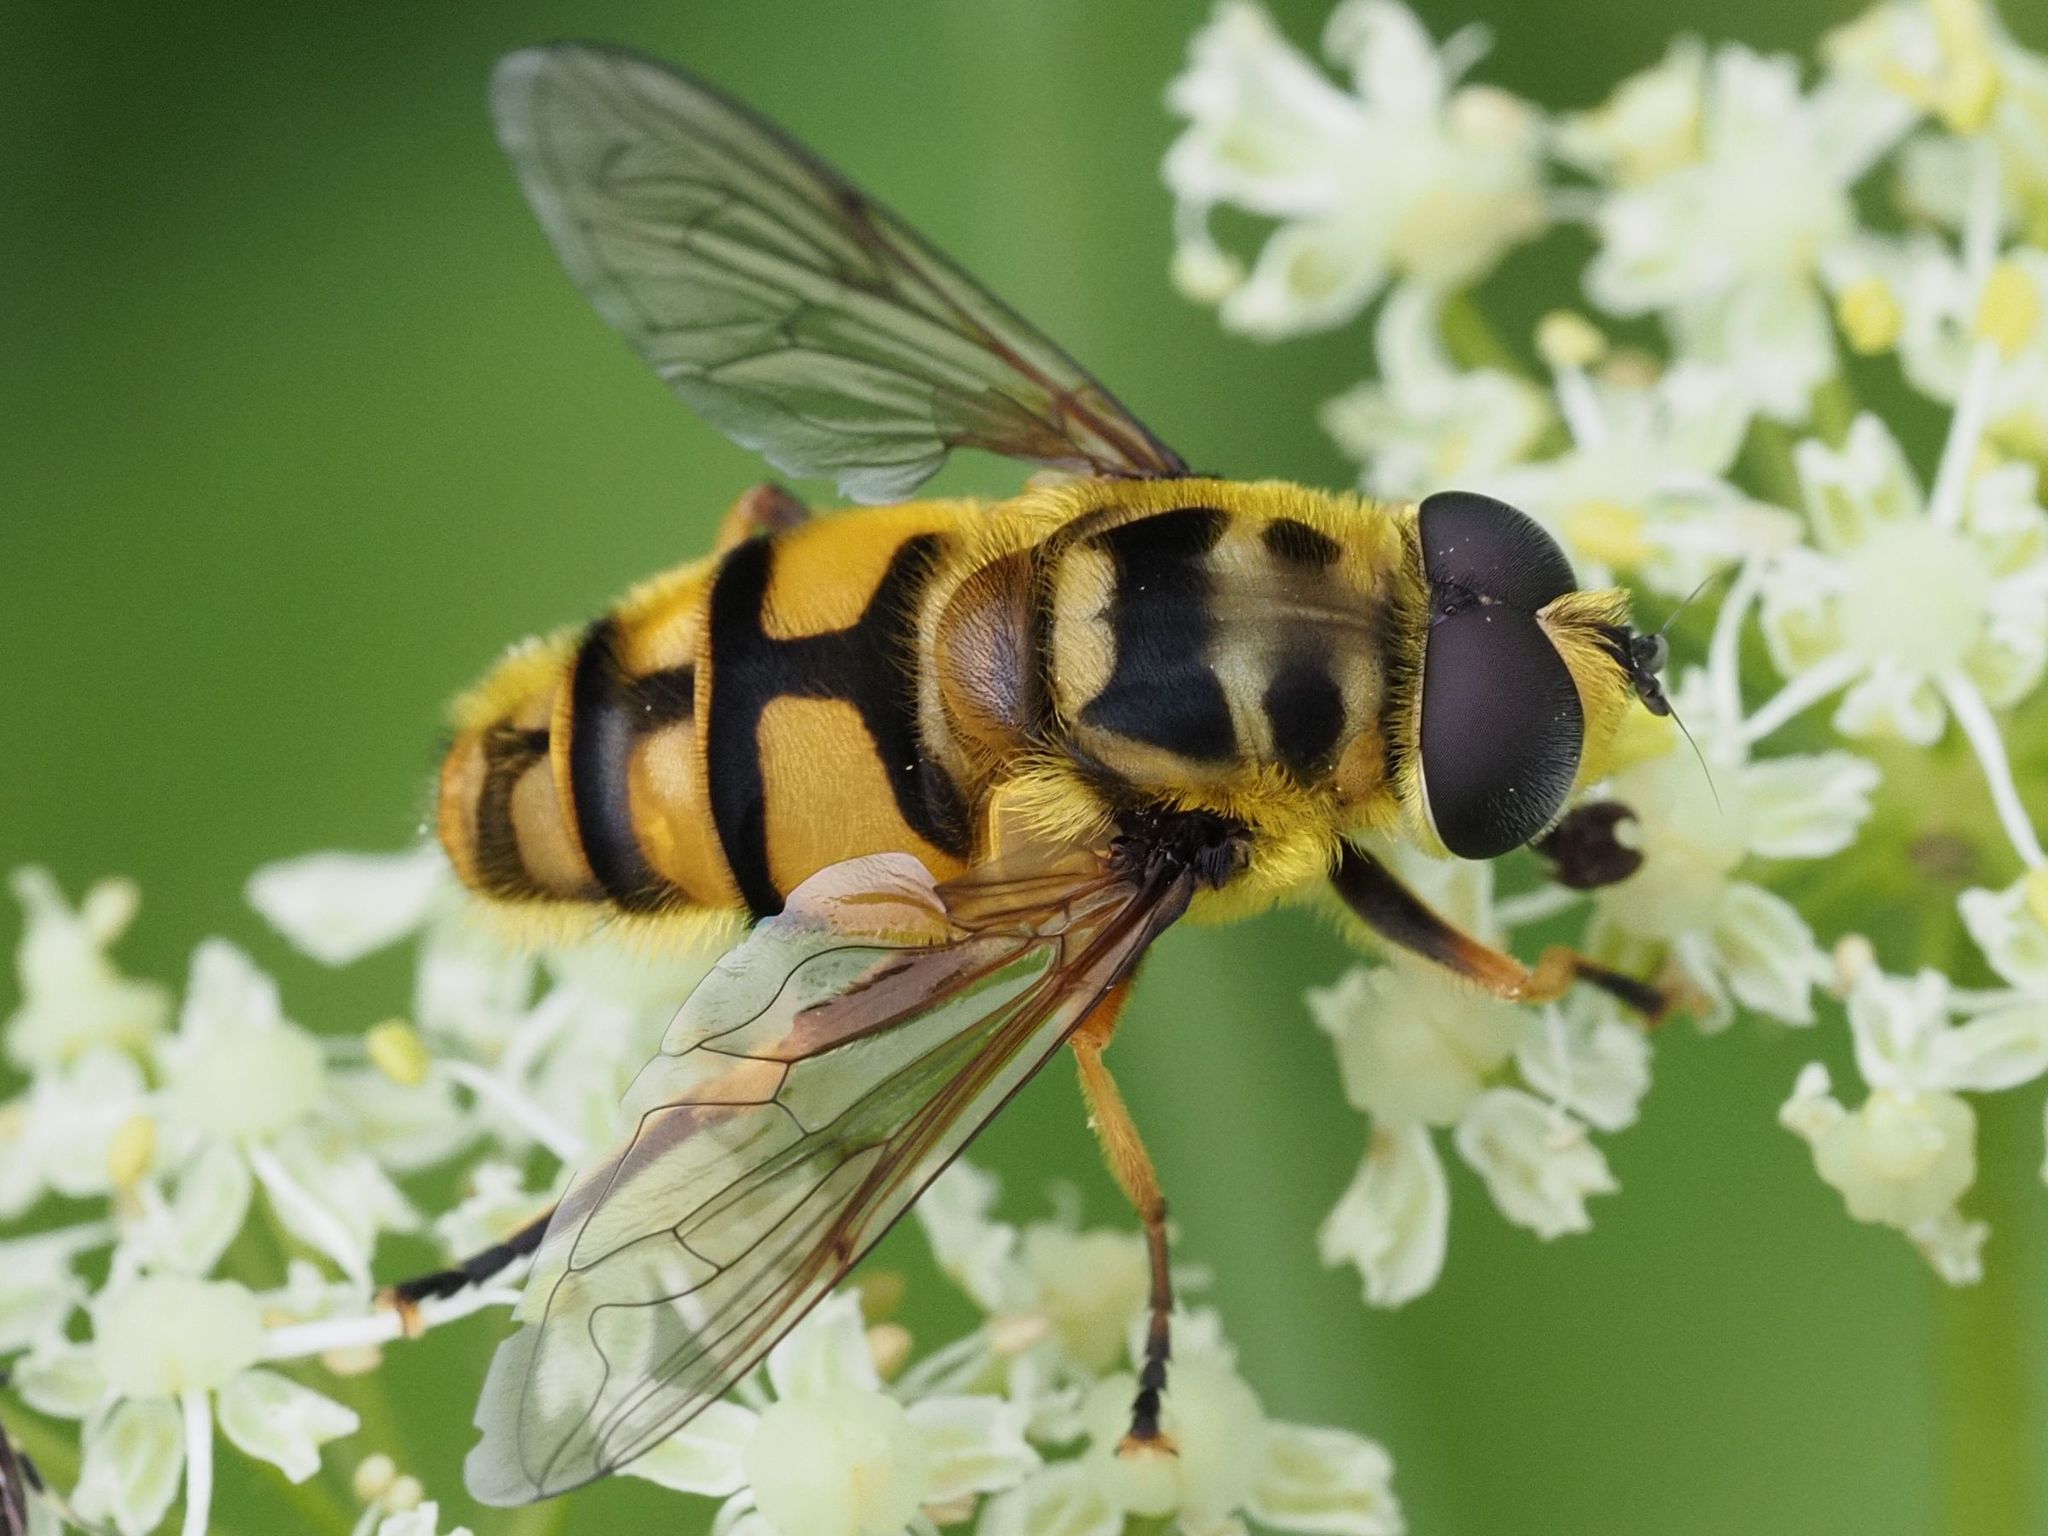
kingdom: Animalia
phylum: Arthropoda
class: Insecta
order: Diptera
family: Syrphidae
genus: Myathropa
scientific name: Myathropa florea
